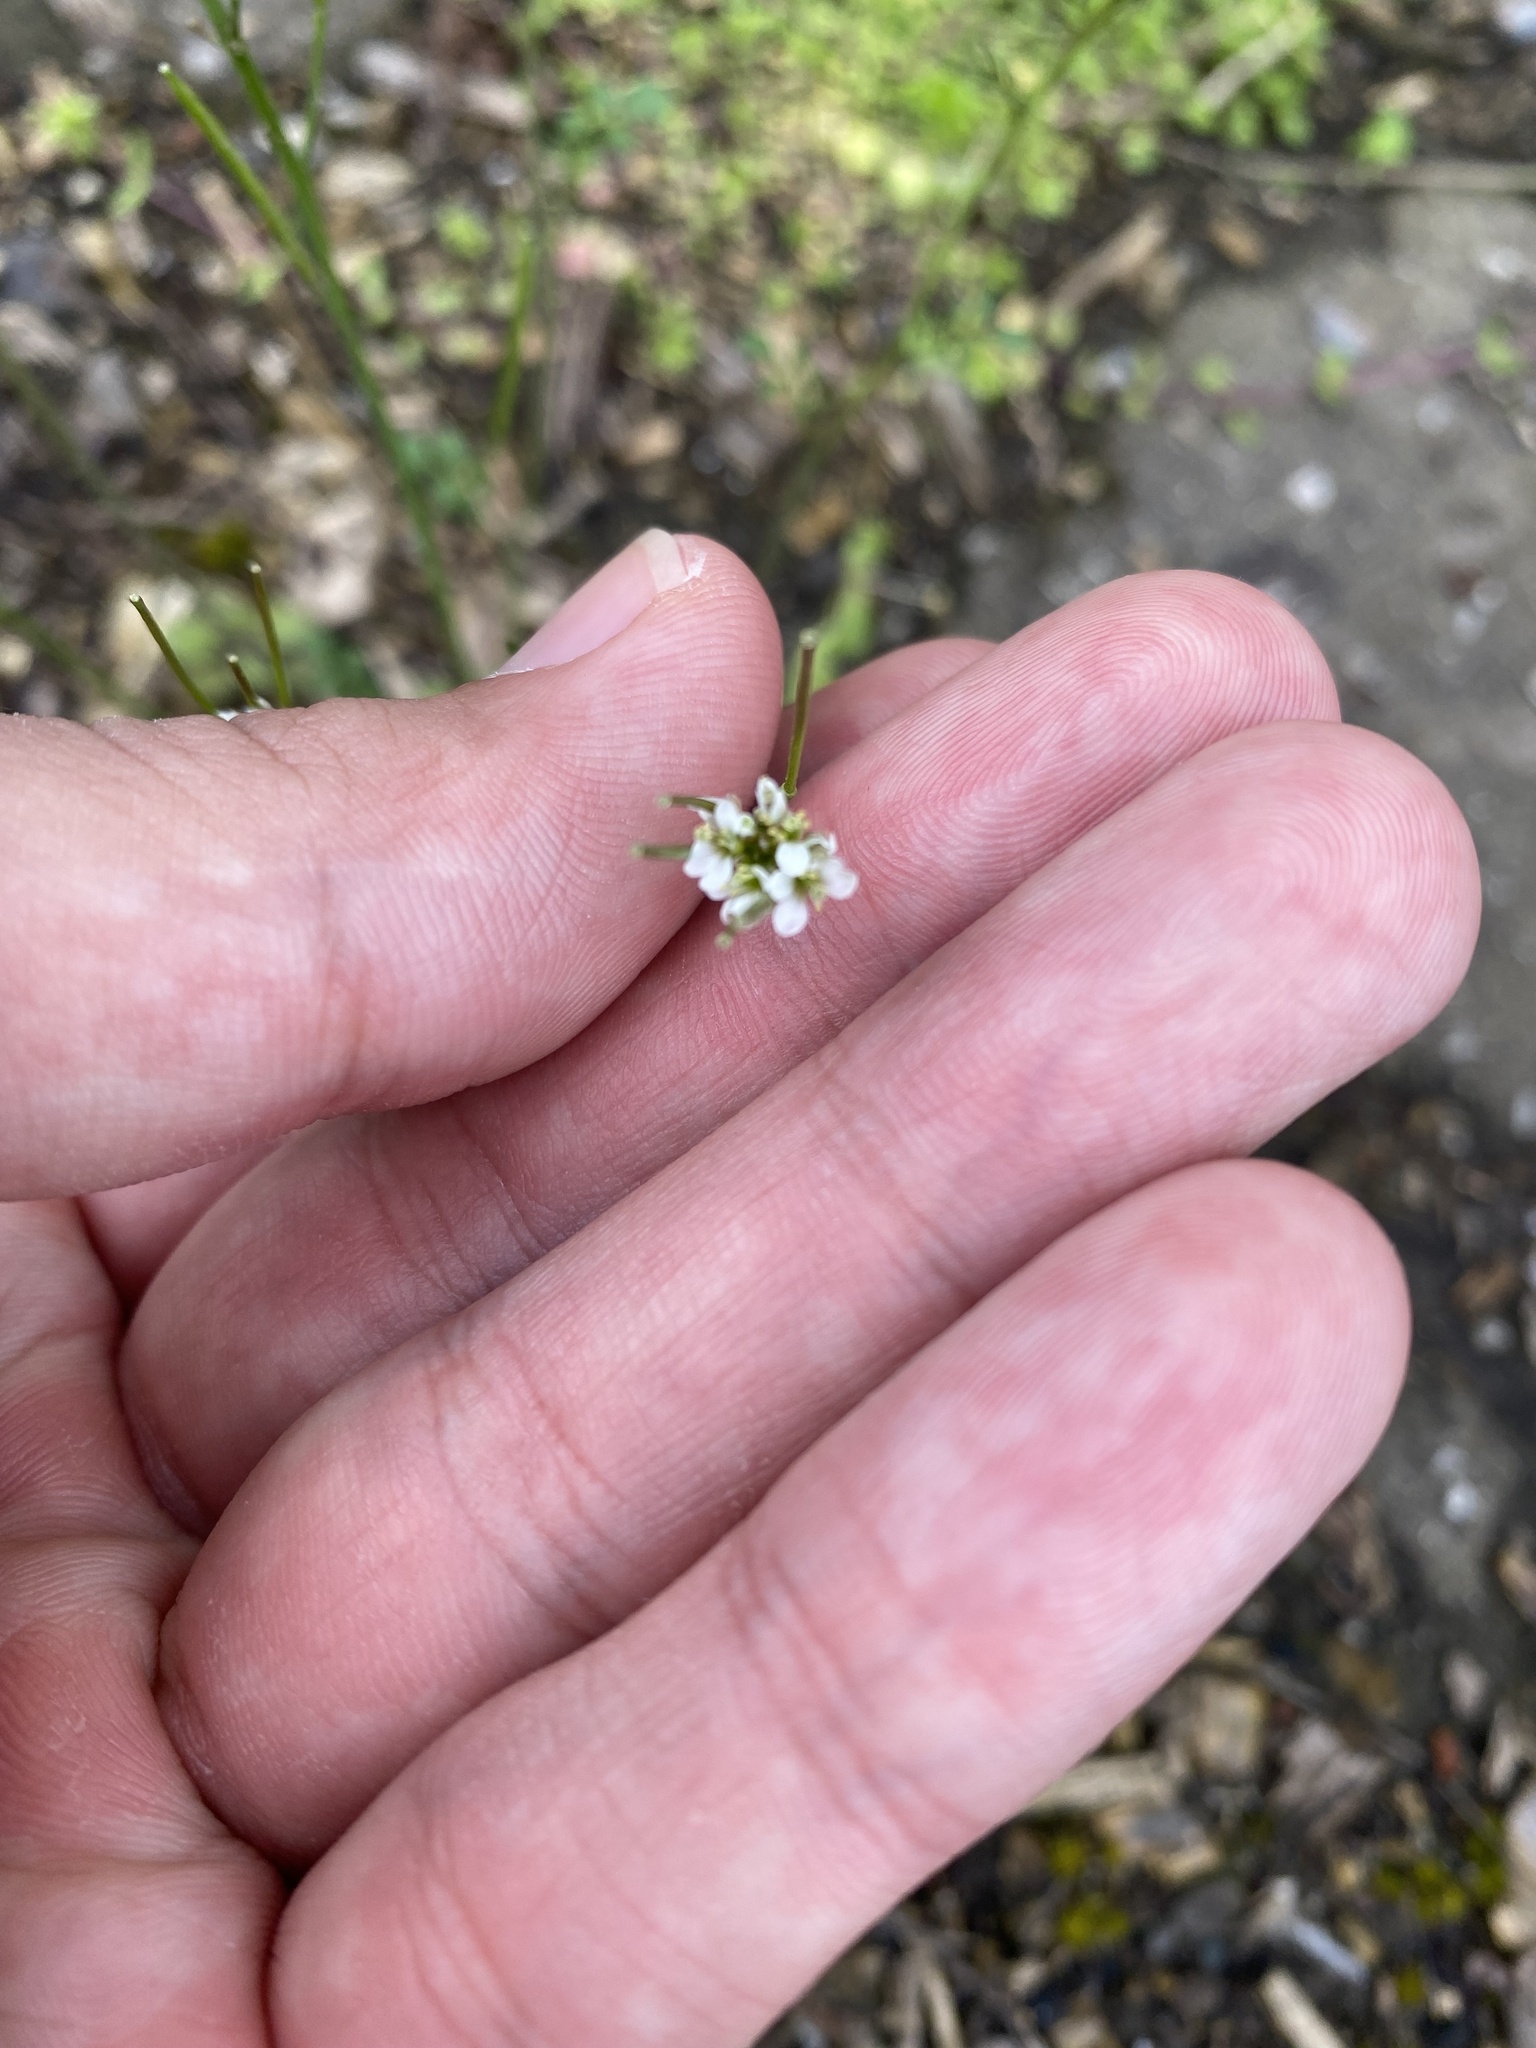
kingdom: Plantae
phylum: Tracheophyta
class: Magnoliopsida
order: Brassicales
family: Brassicaceae
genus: Cardamine
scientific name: Cardamine hirsuta
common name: Hairy bittercress
